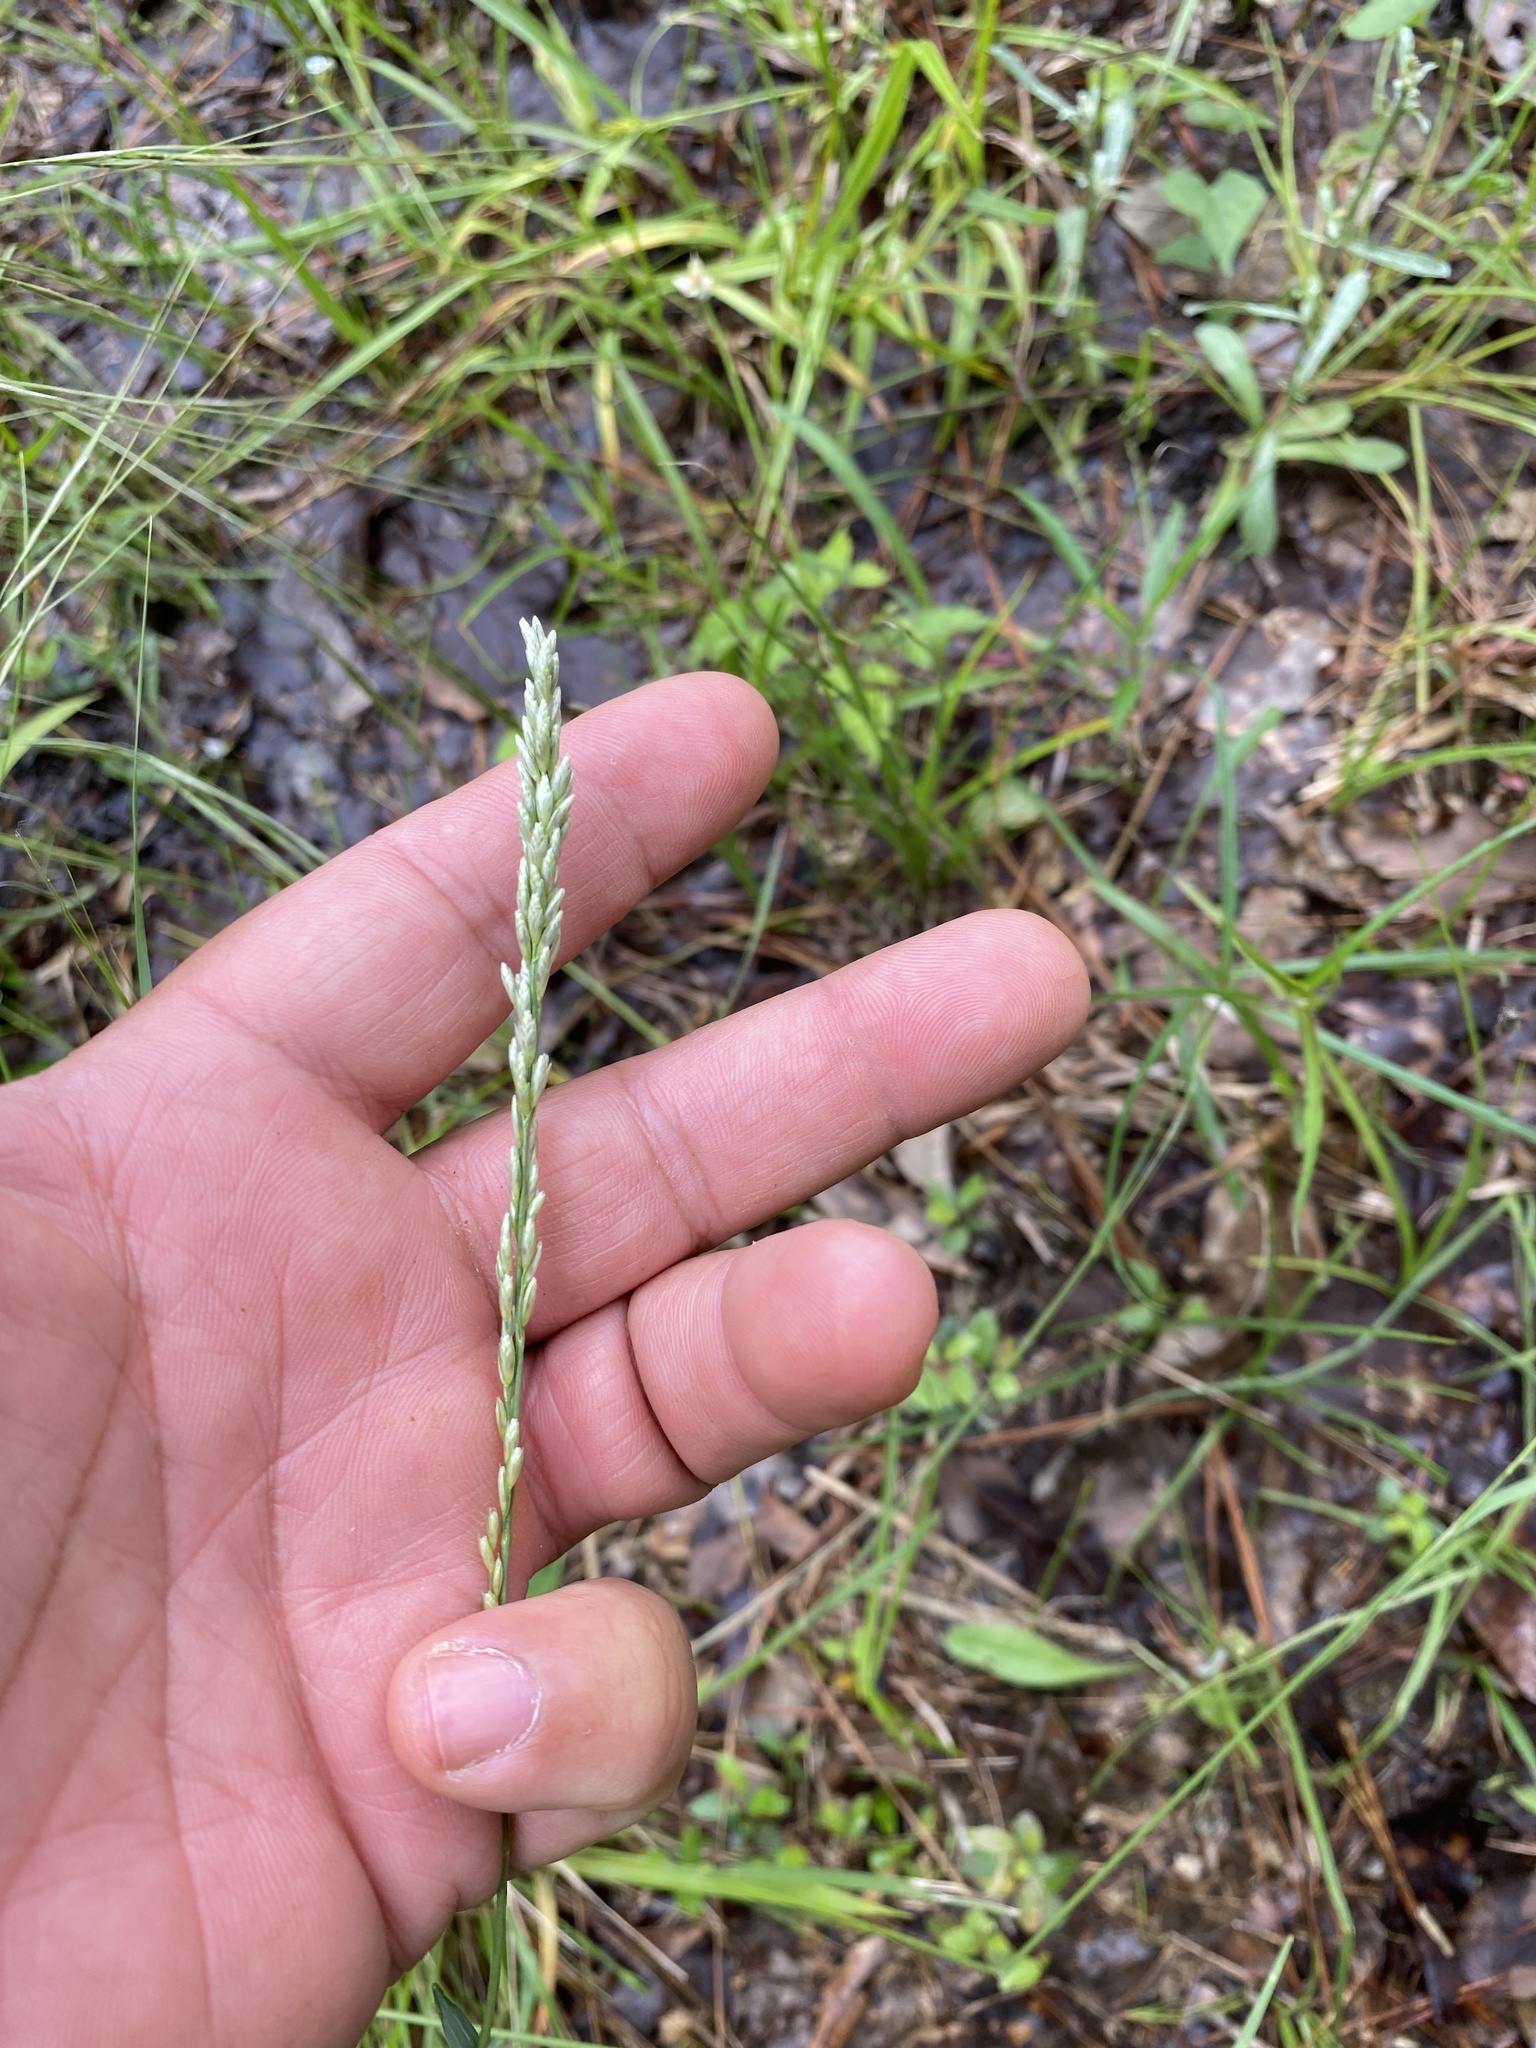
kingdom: Plantae
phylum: Tracheophyta
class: Liliopsida
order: Poales
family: Poaceae
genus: Tridens
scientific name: Tridens albescens
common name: White tridens
